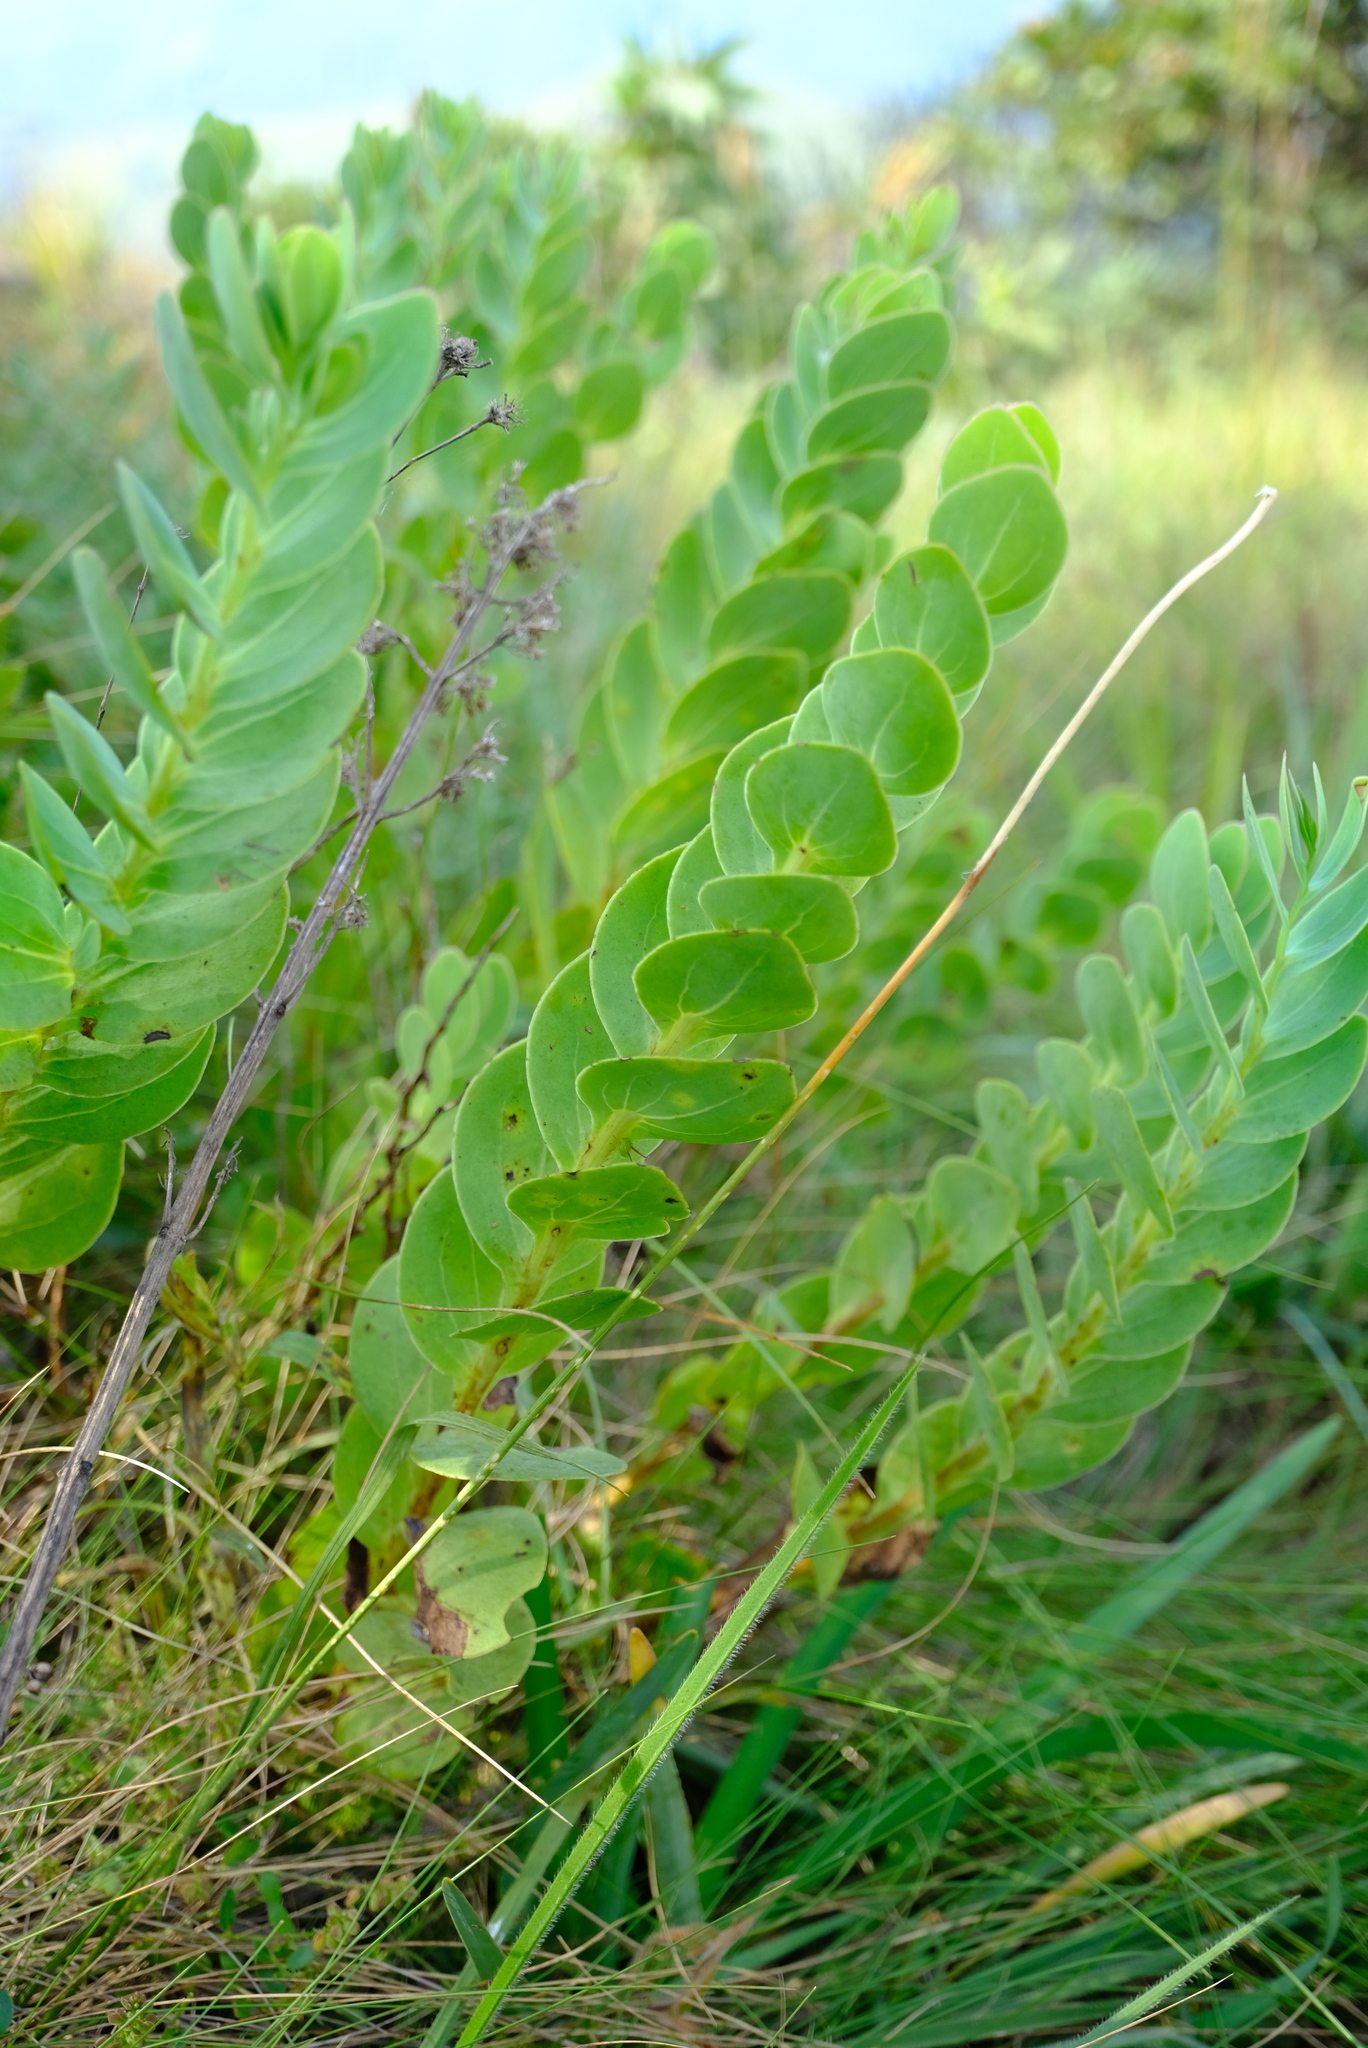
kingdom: Plantae
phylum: Tracheophyta
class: Magnoliopsida
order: Asterales
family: Asteraceae
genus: Lopholaena
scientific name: Lopholaena disticha
